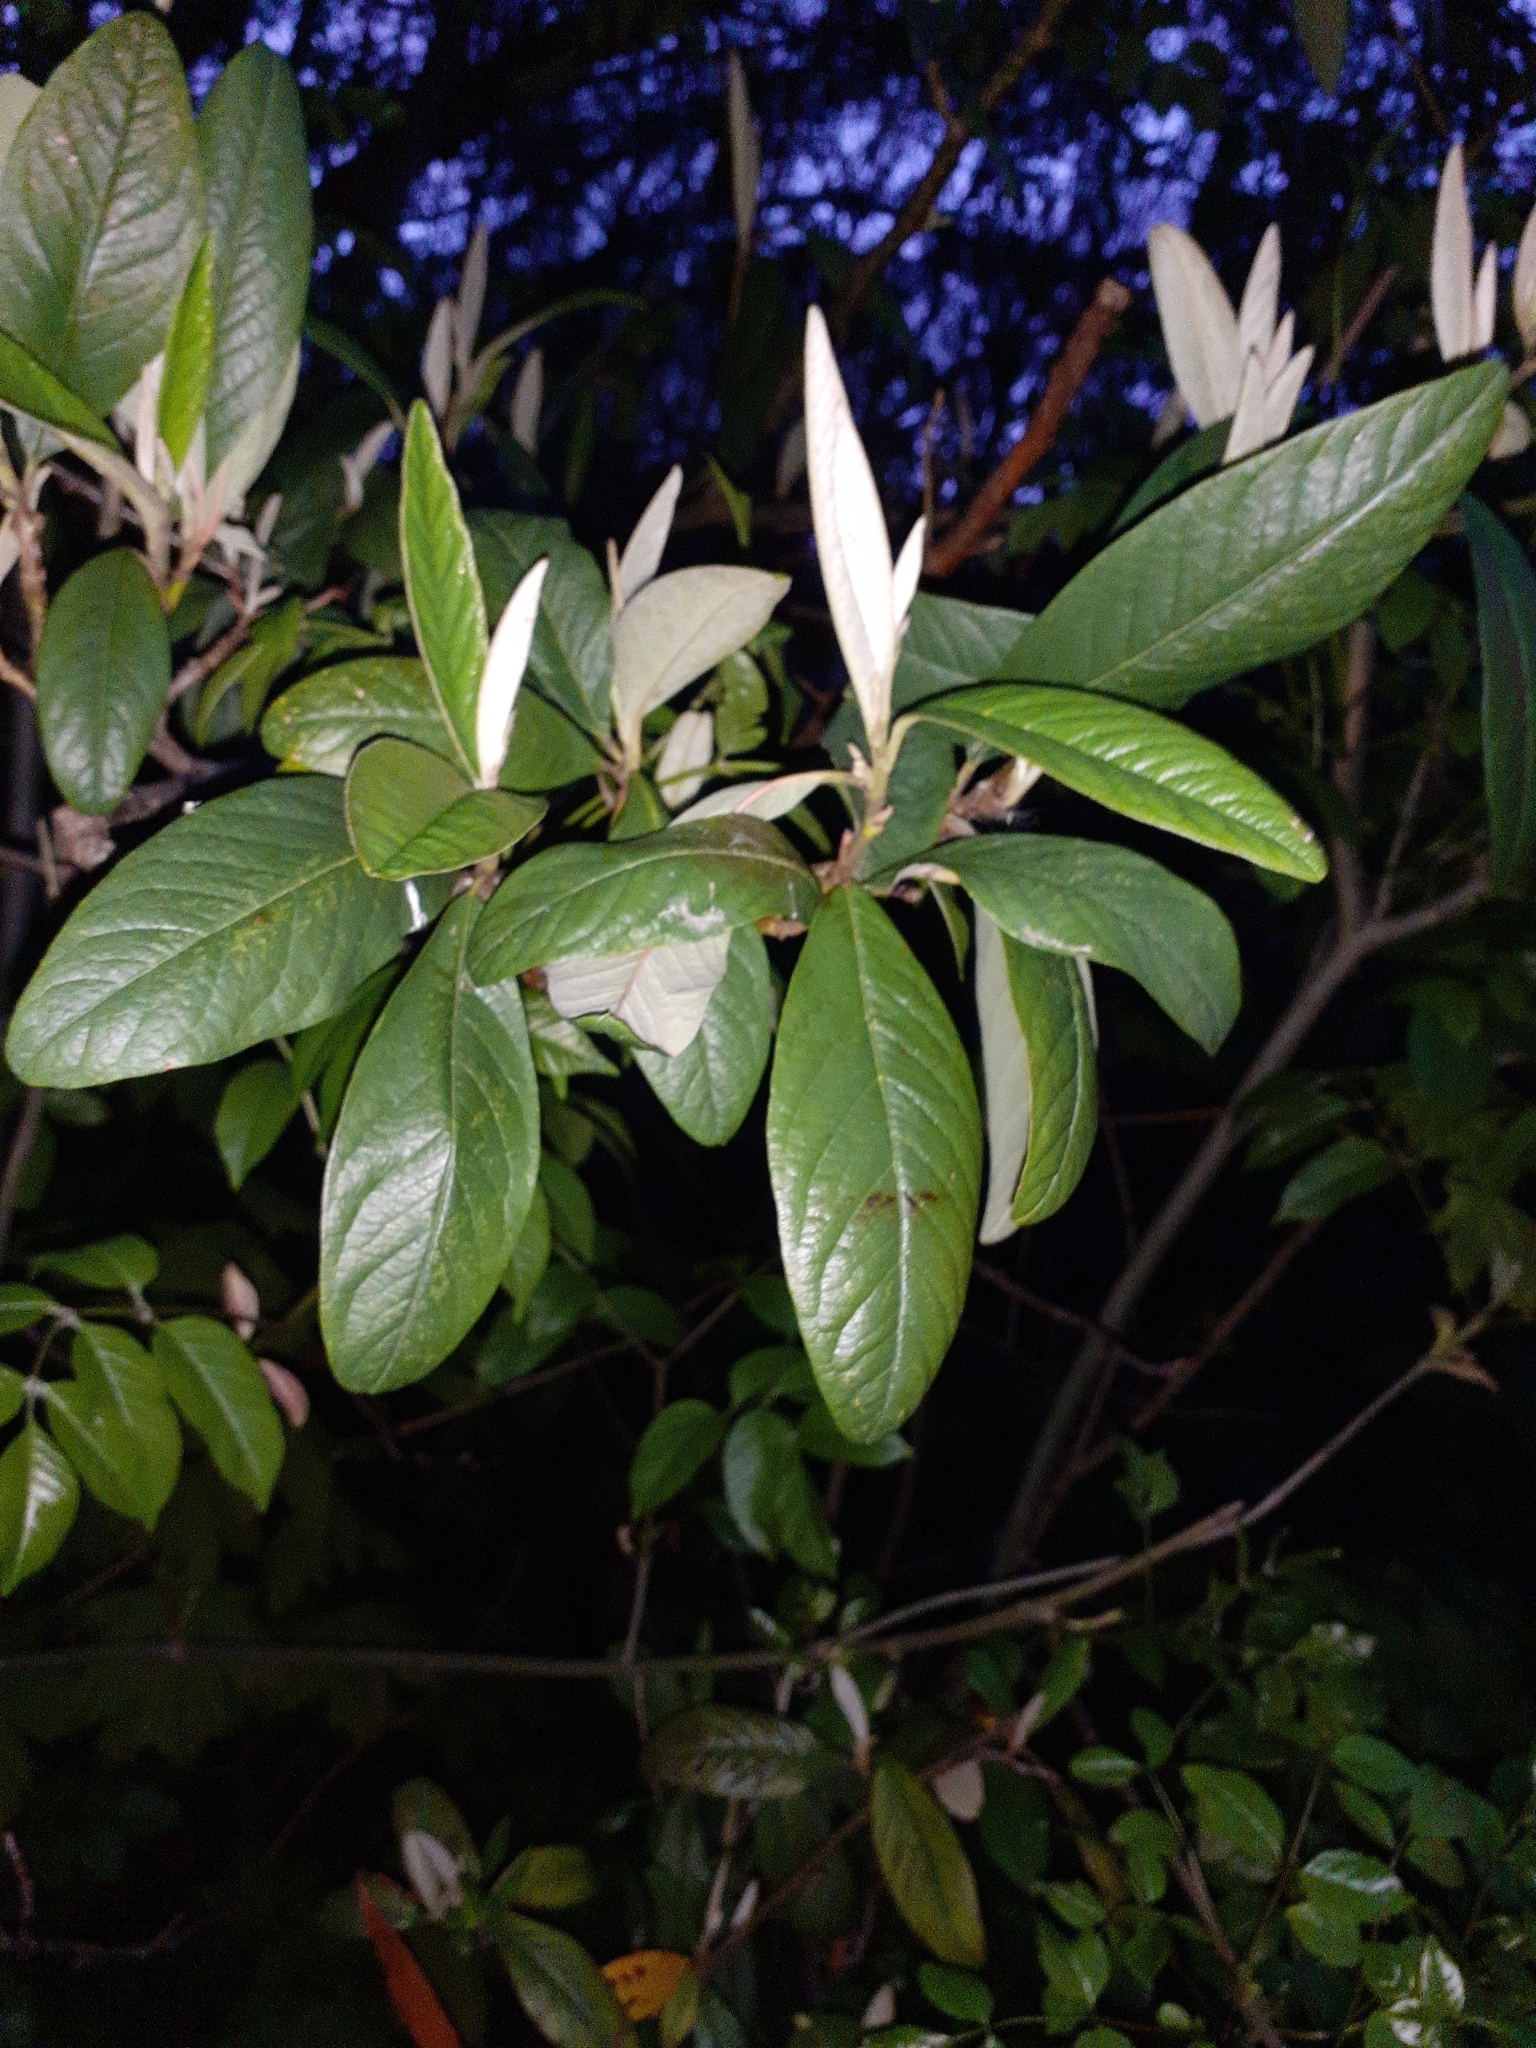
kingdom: Plantae
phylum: Tracheophyta
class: Magnoliopsida
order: Rosales
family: Rosaceae
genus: Cotoneaster
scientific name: Cotoneaster watereri
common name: Waterer's cotoneaster
